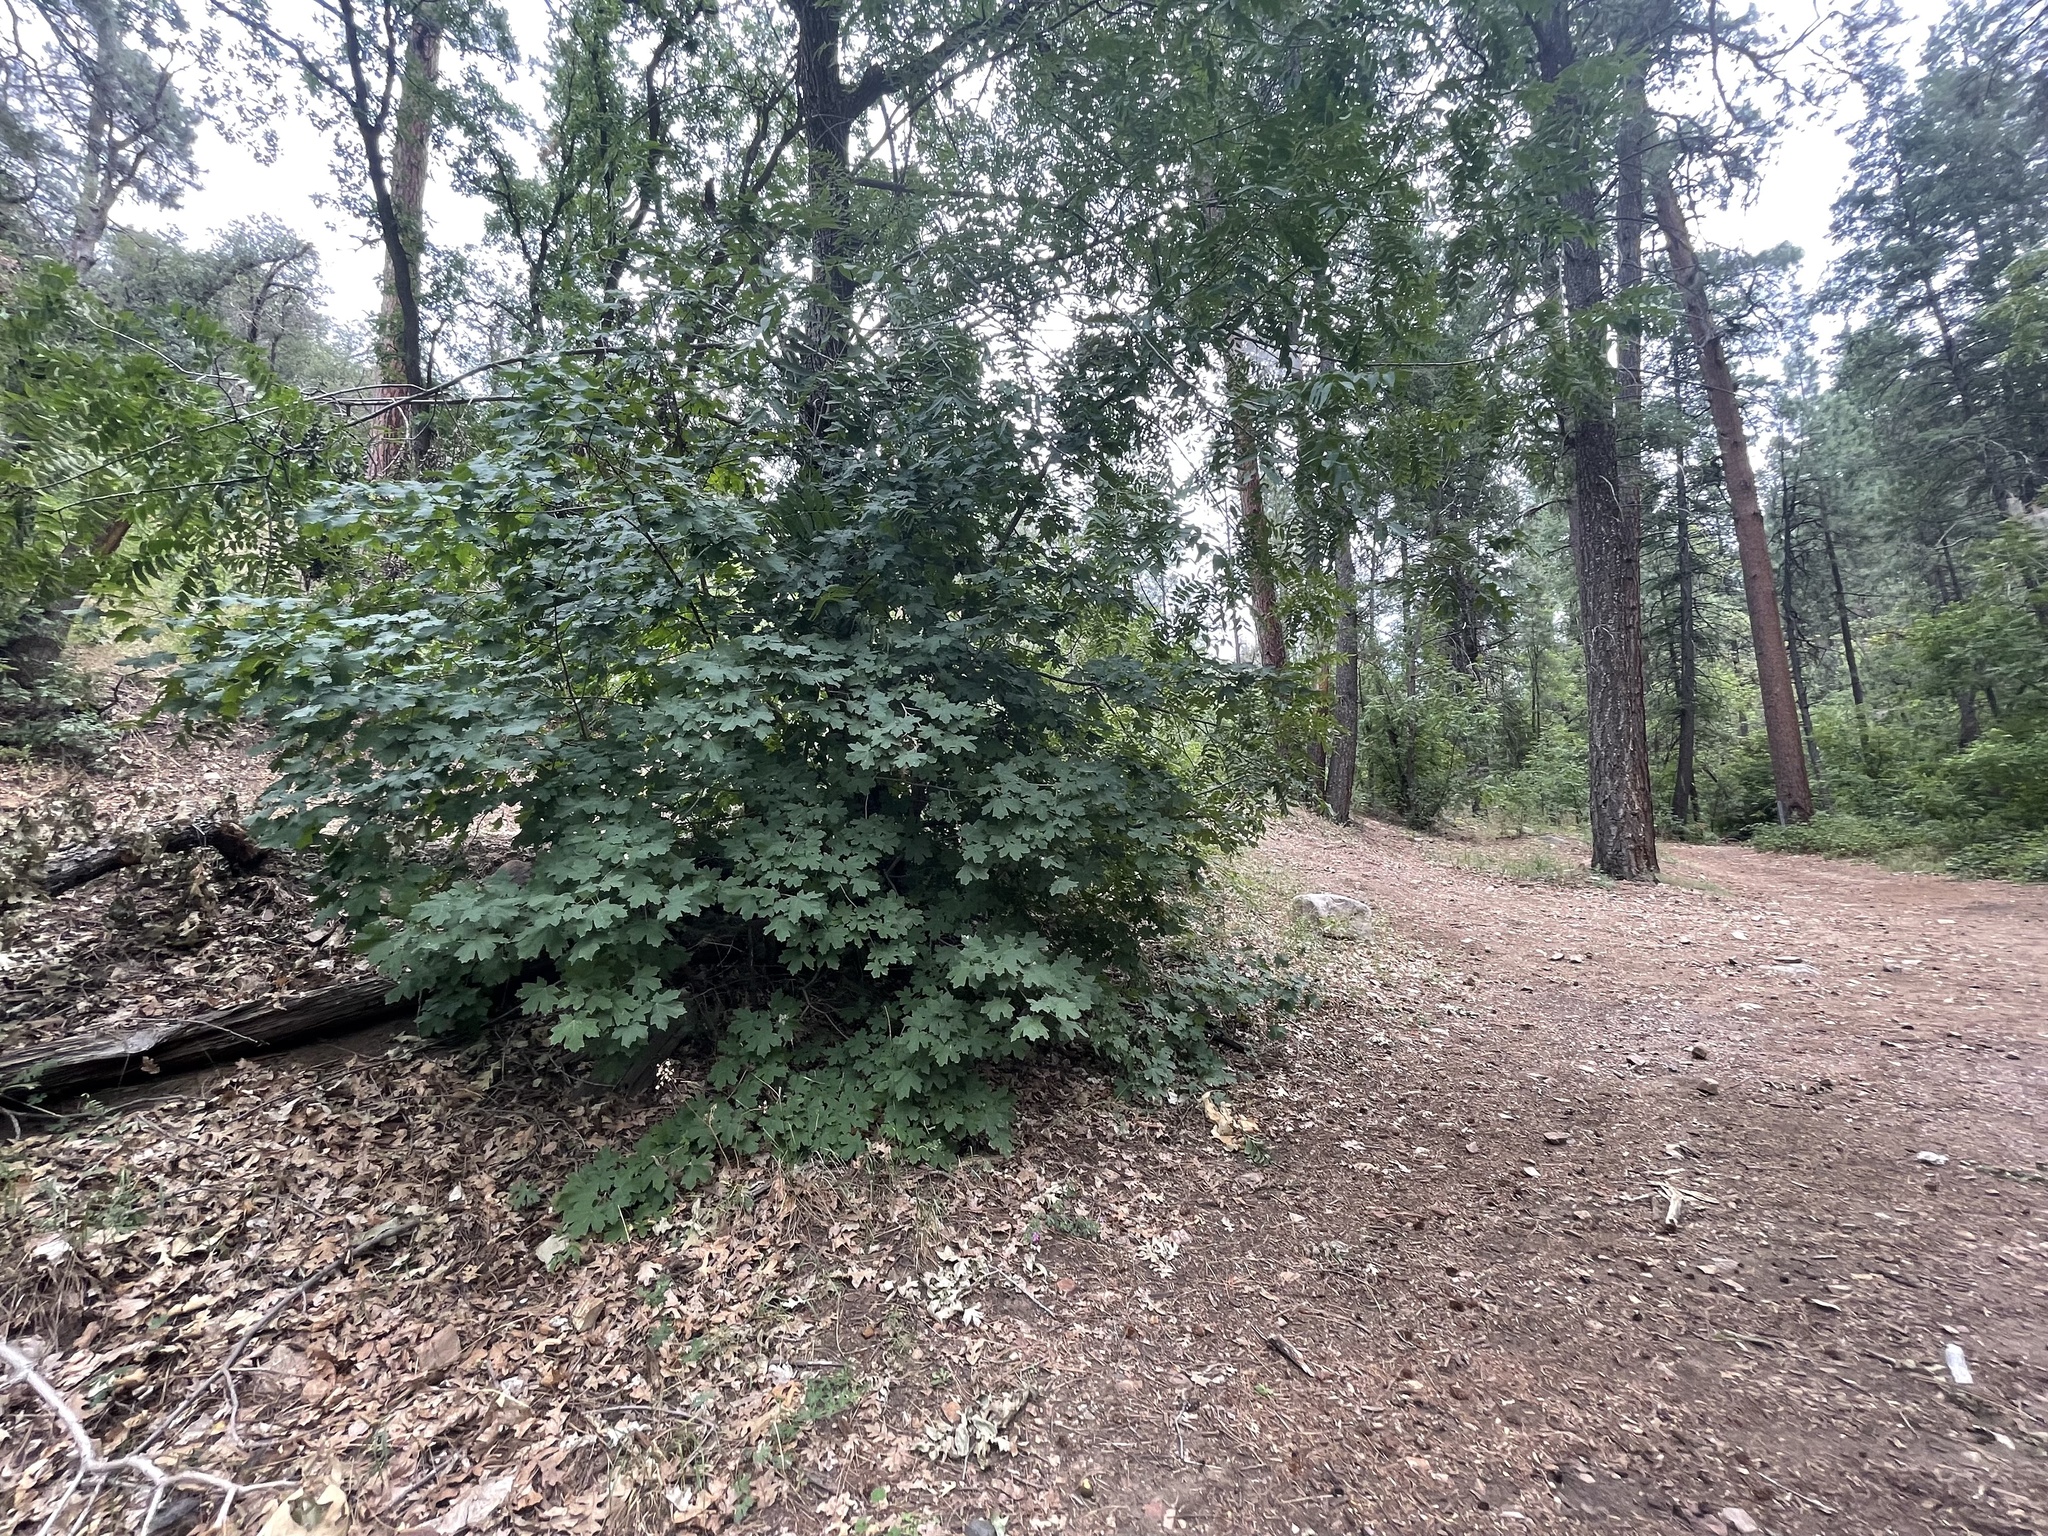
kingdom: Plantae
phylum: Tracheophyta
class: Magnoliopsida
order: Sapindales
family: Sapindaceae
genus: Acer
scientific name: Acer grandidentatum
